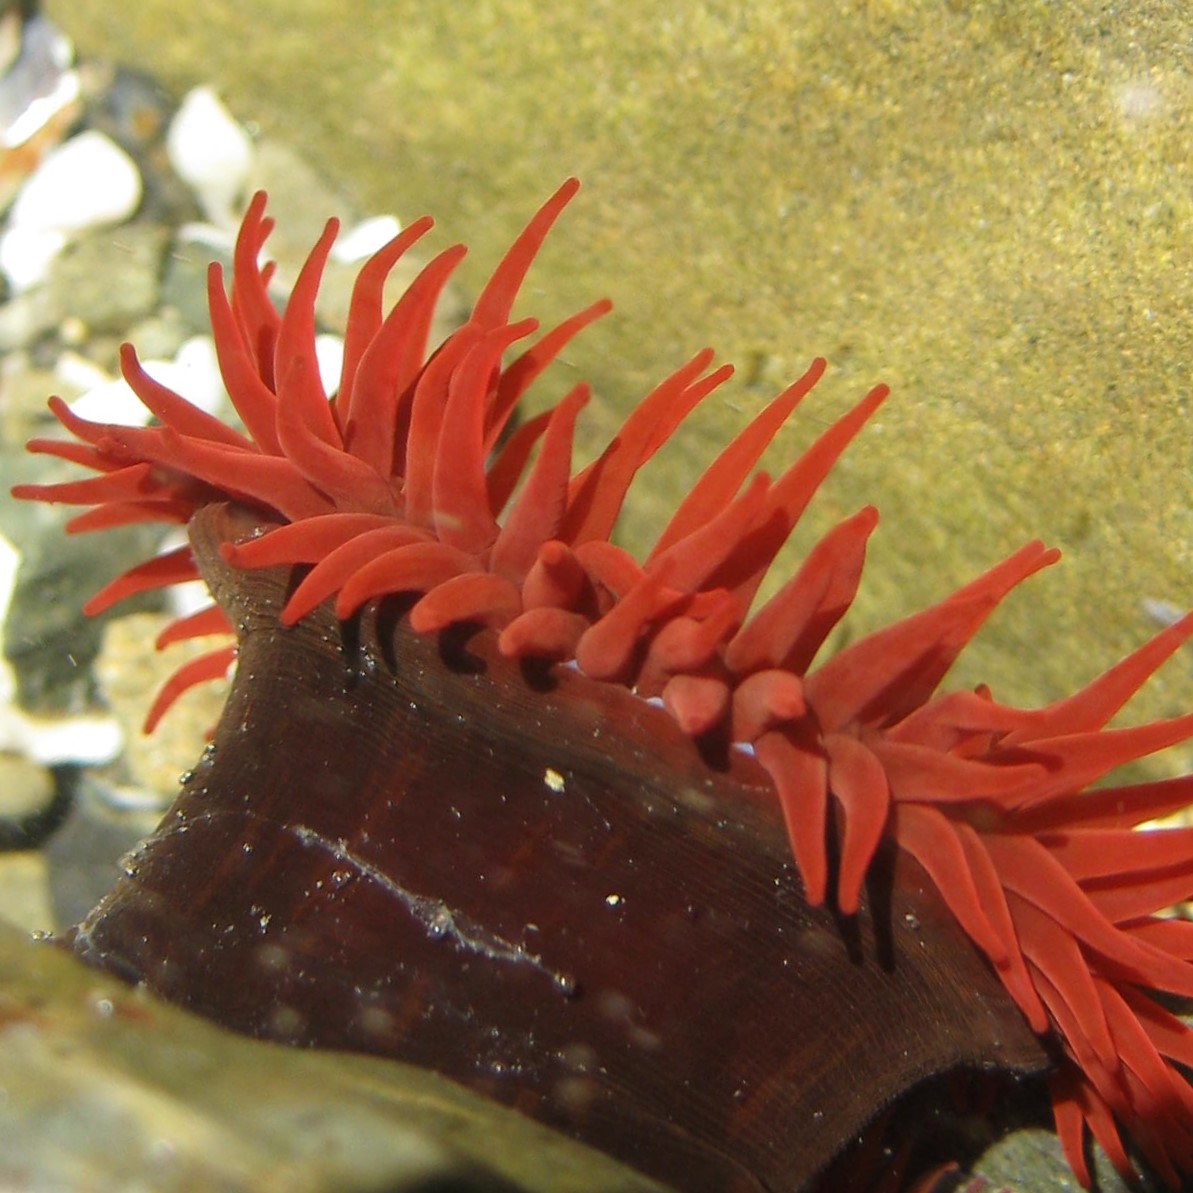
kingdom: Animalia
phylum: Cnidaria
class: Anthozoa
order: Actiniaria
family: Actiniidae
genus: Actinia
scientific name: Actinia tenebrosa
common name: Waratah anemone
